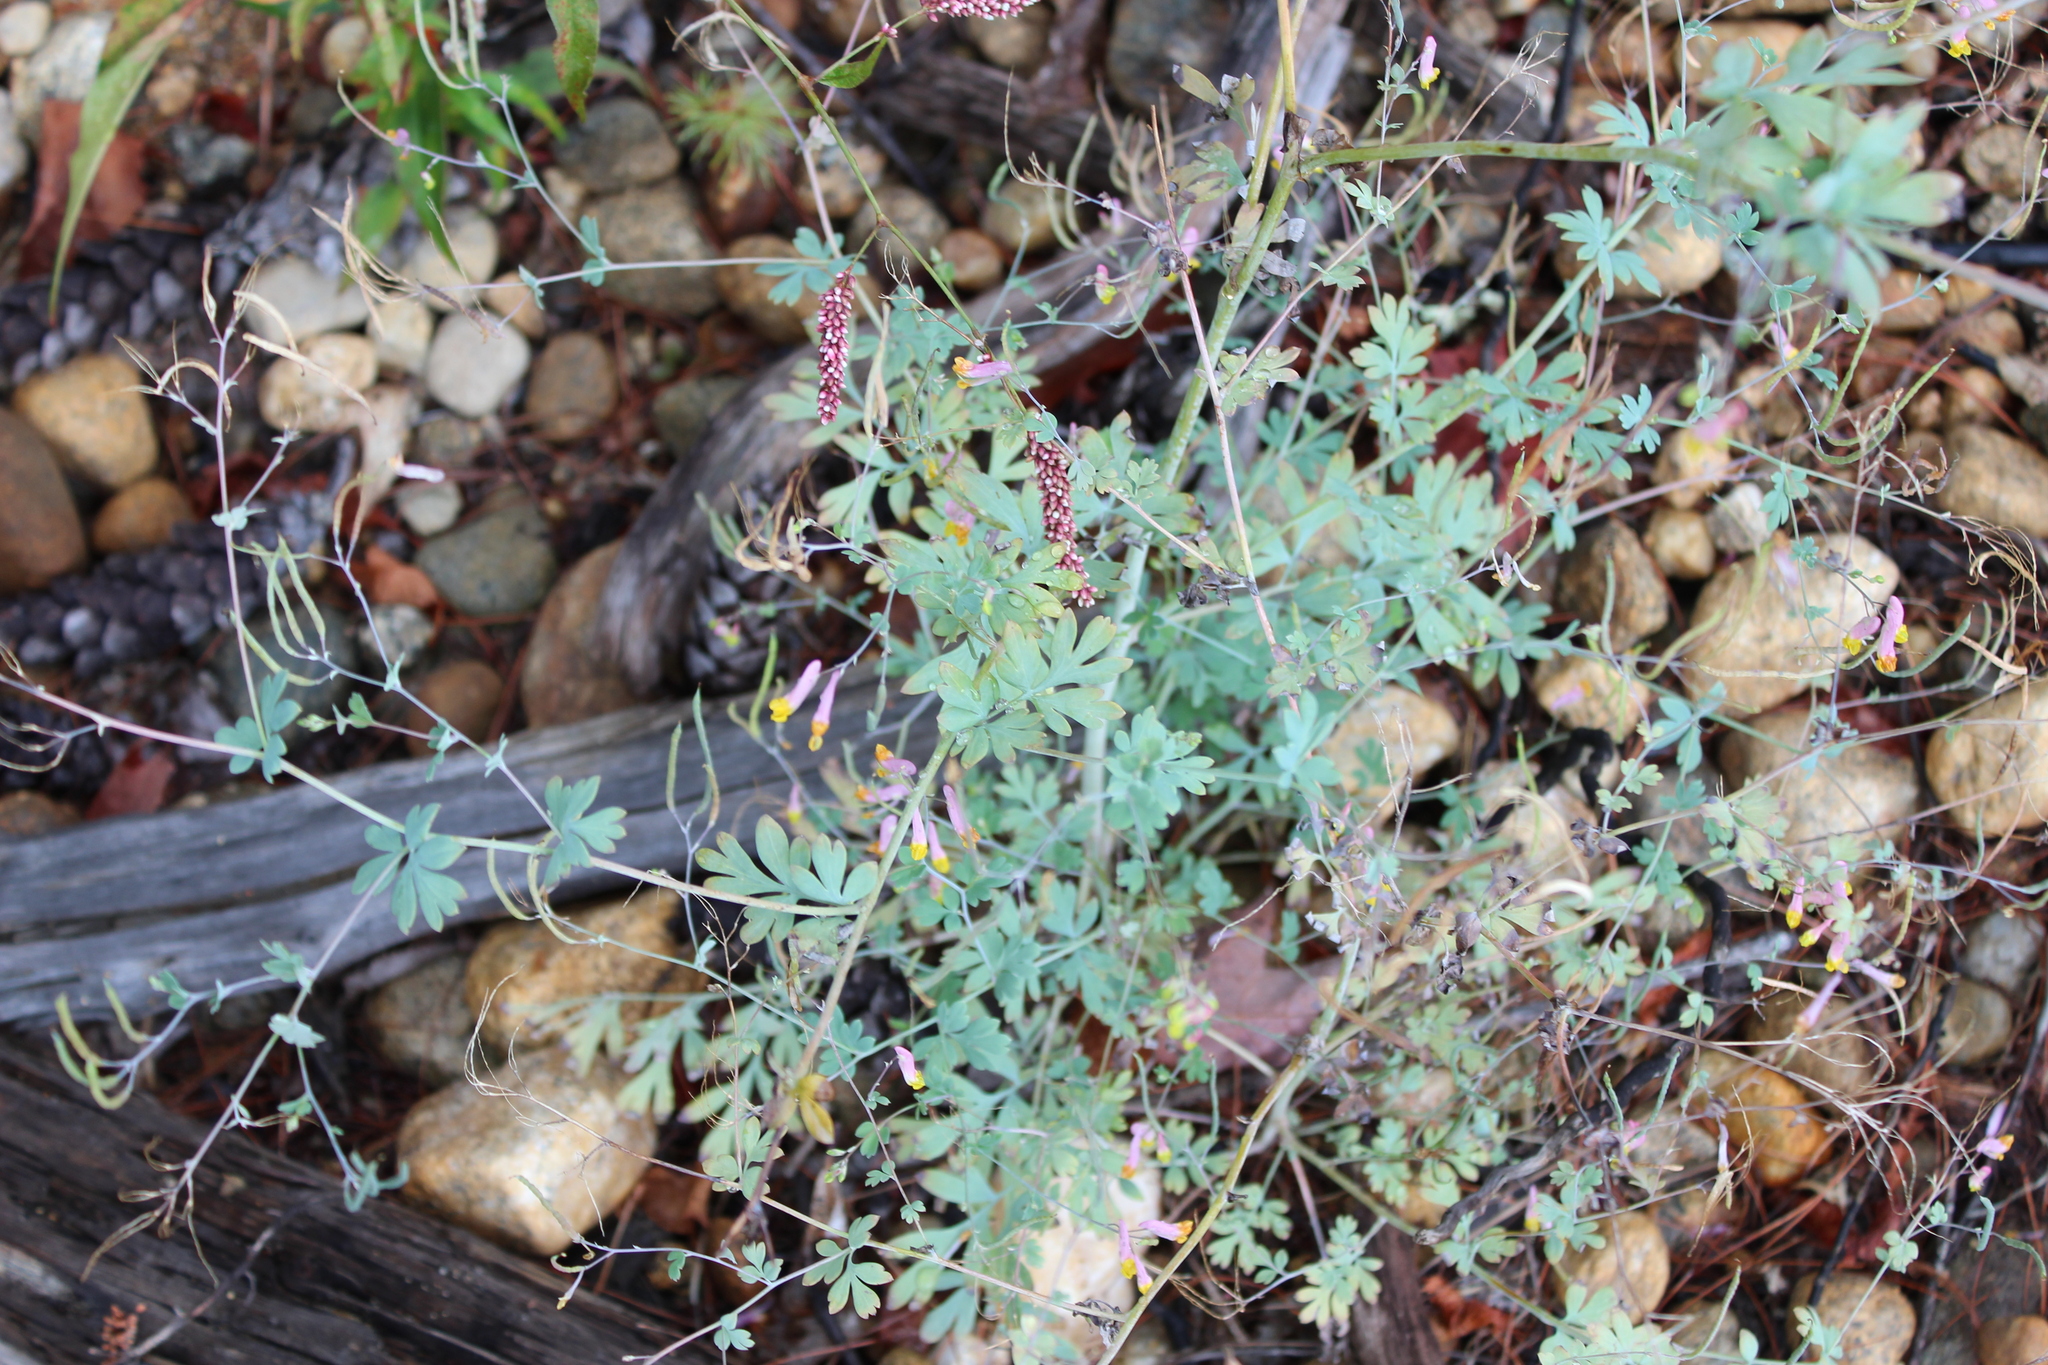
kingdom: Plantae
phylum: Tracheophyta
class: Magnoliopsida
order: Ranunculales
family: Papaveraceae
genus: Capnoides
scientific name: Capnoides sempervirens
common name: Rock harlequin
